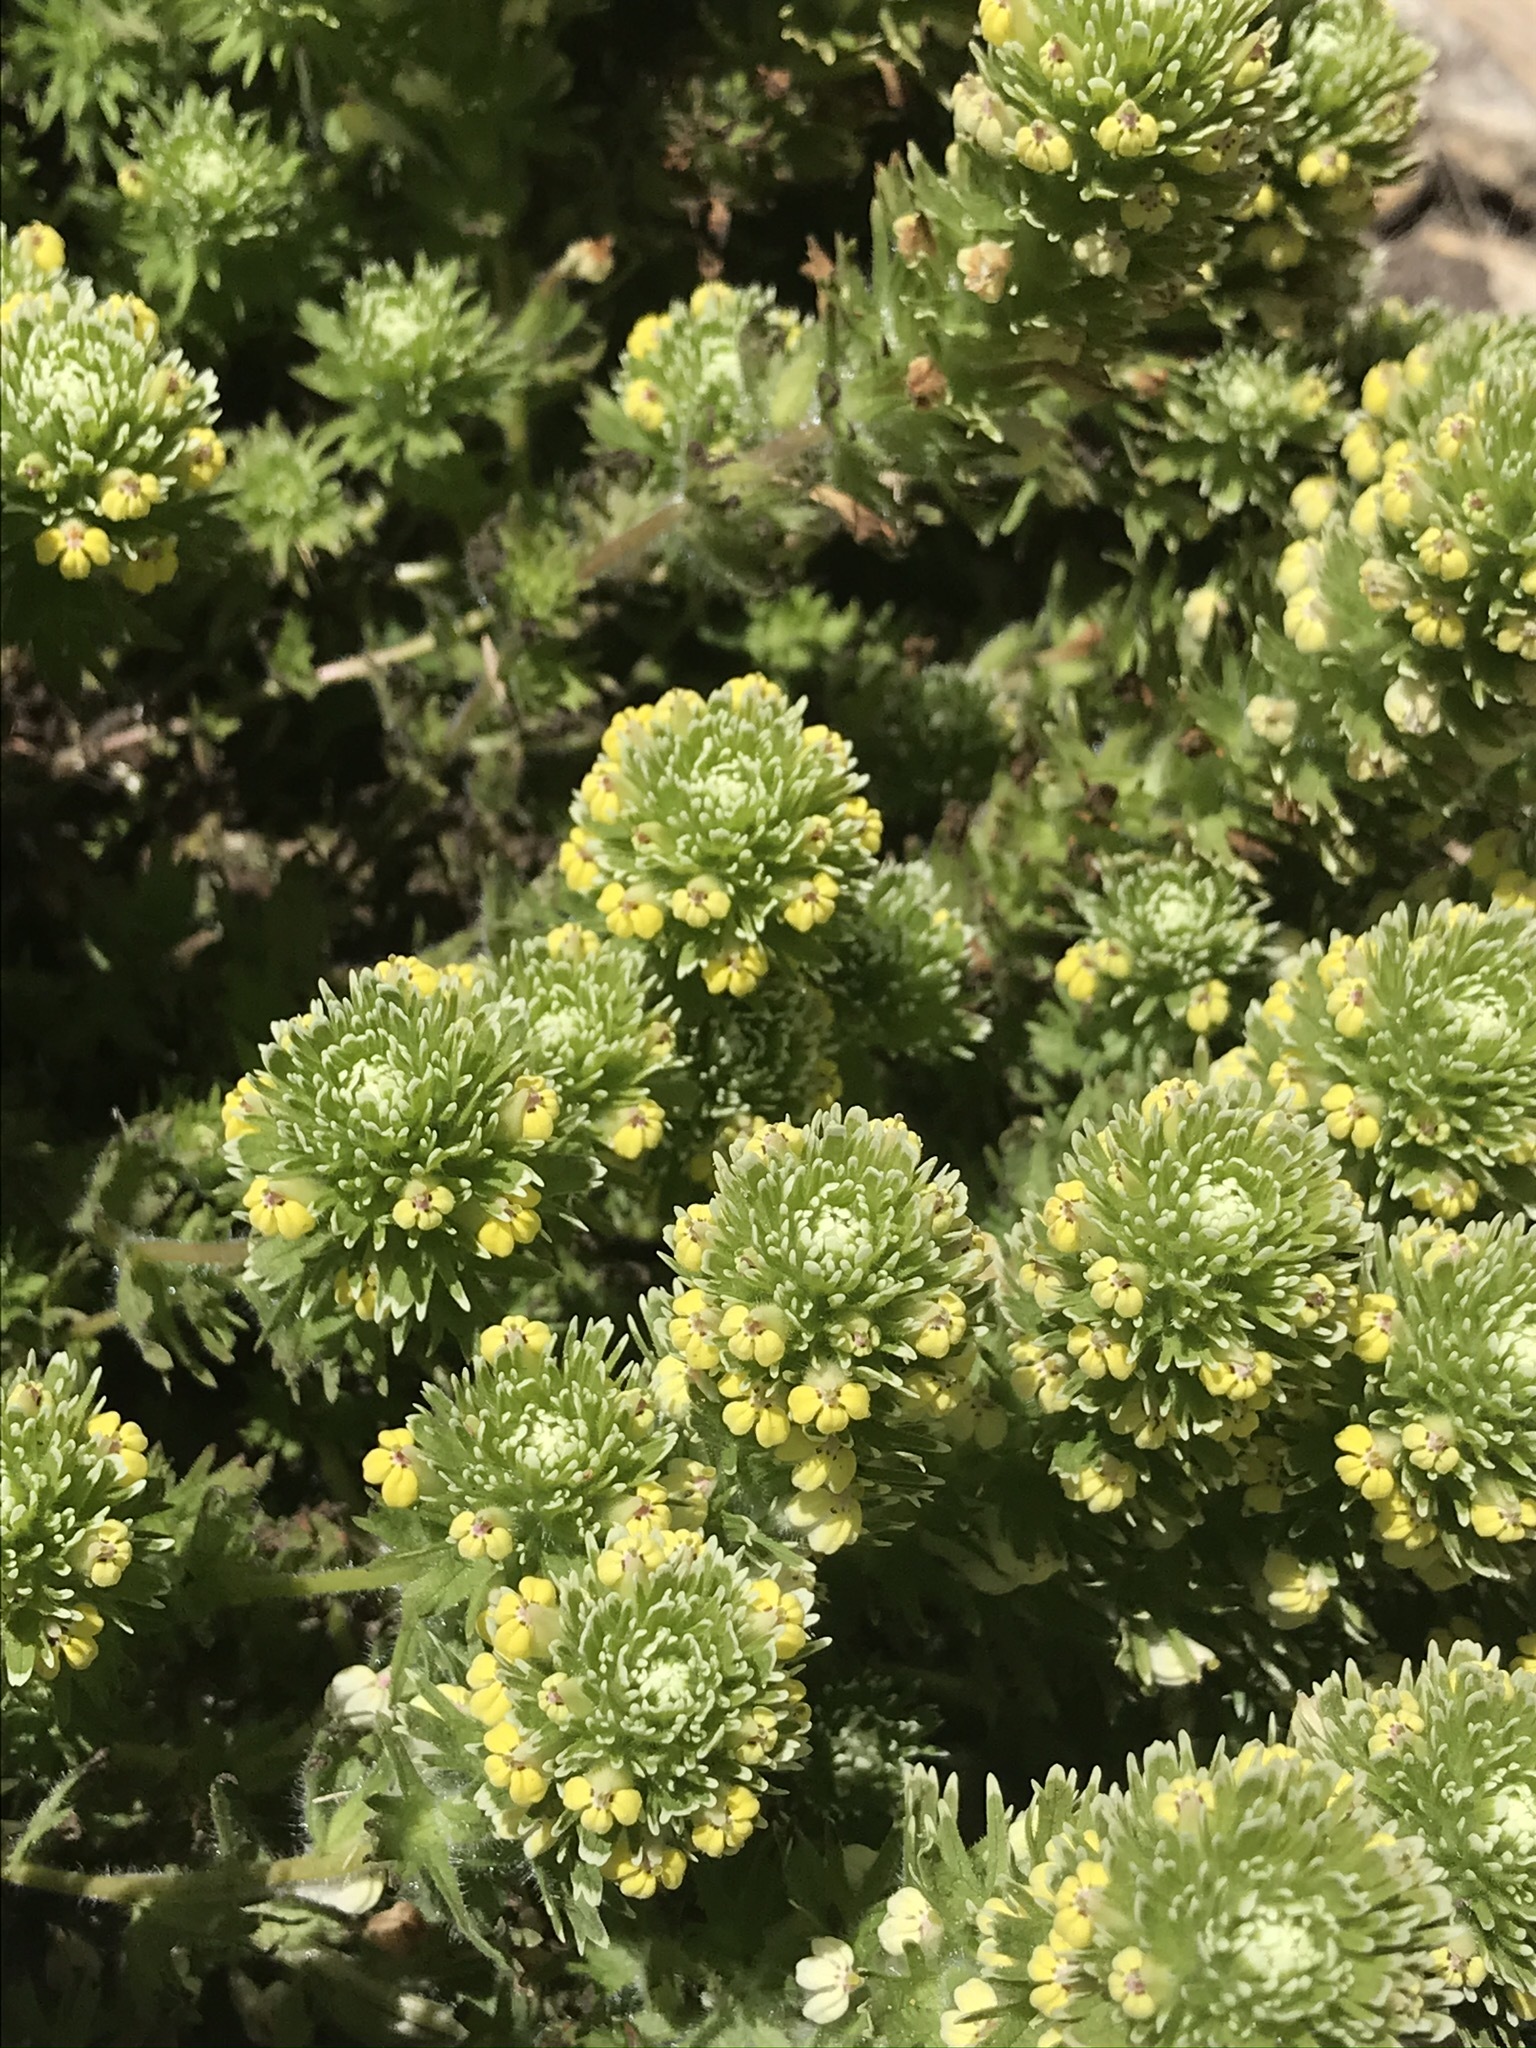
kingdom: Plantae
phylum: Tracheophyta
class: Magnoliopsida
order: Lamiales
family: Orobanchaceae
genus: Castilleja
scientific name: Castilleja ambigua
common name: Johnny-nip
